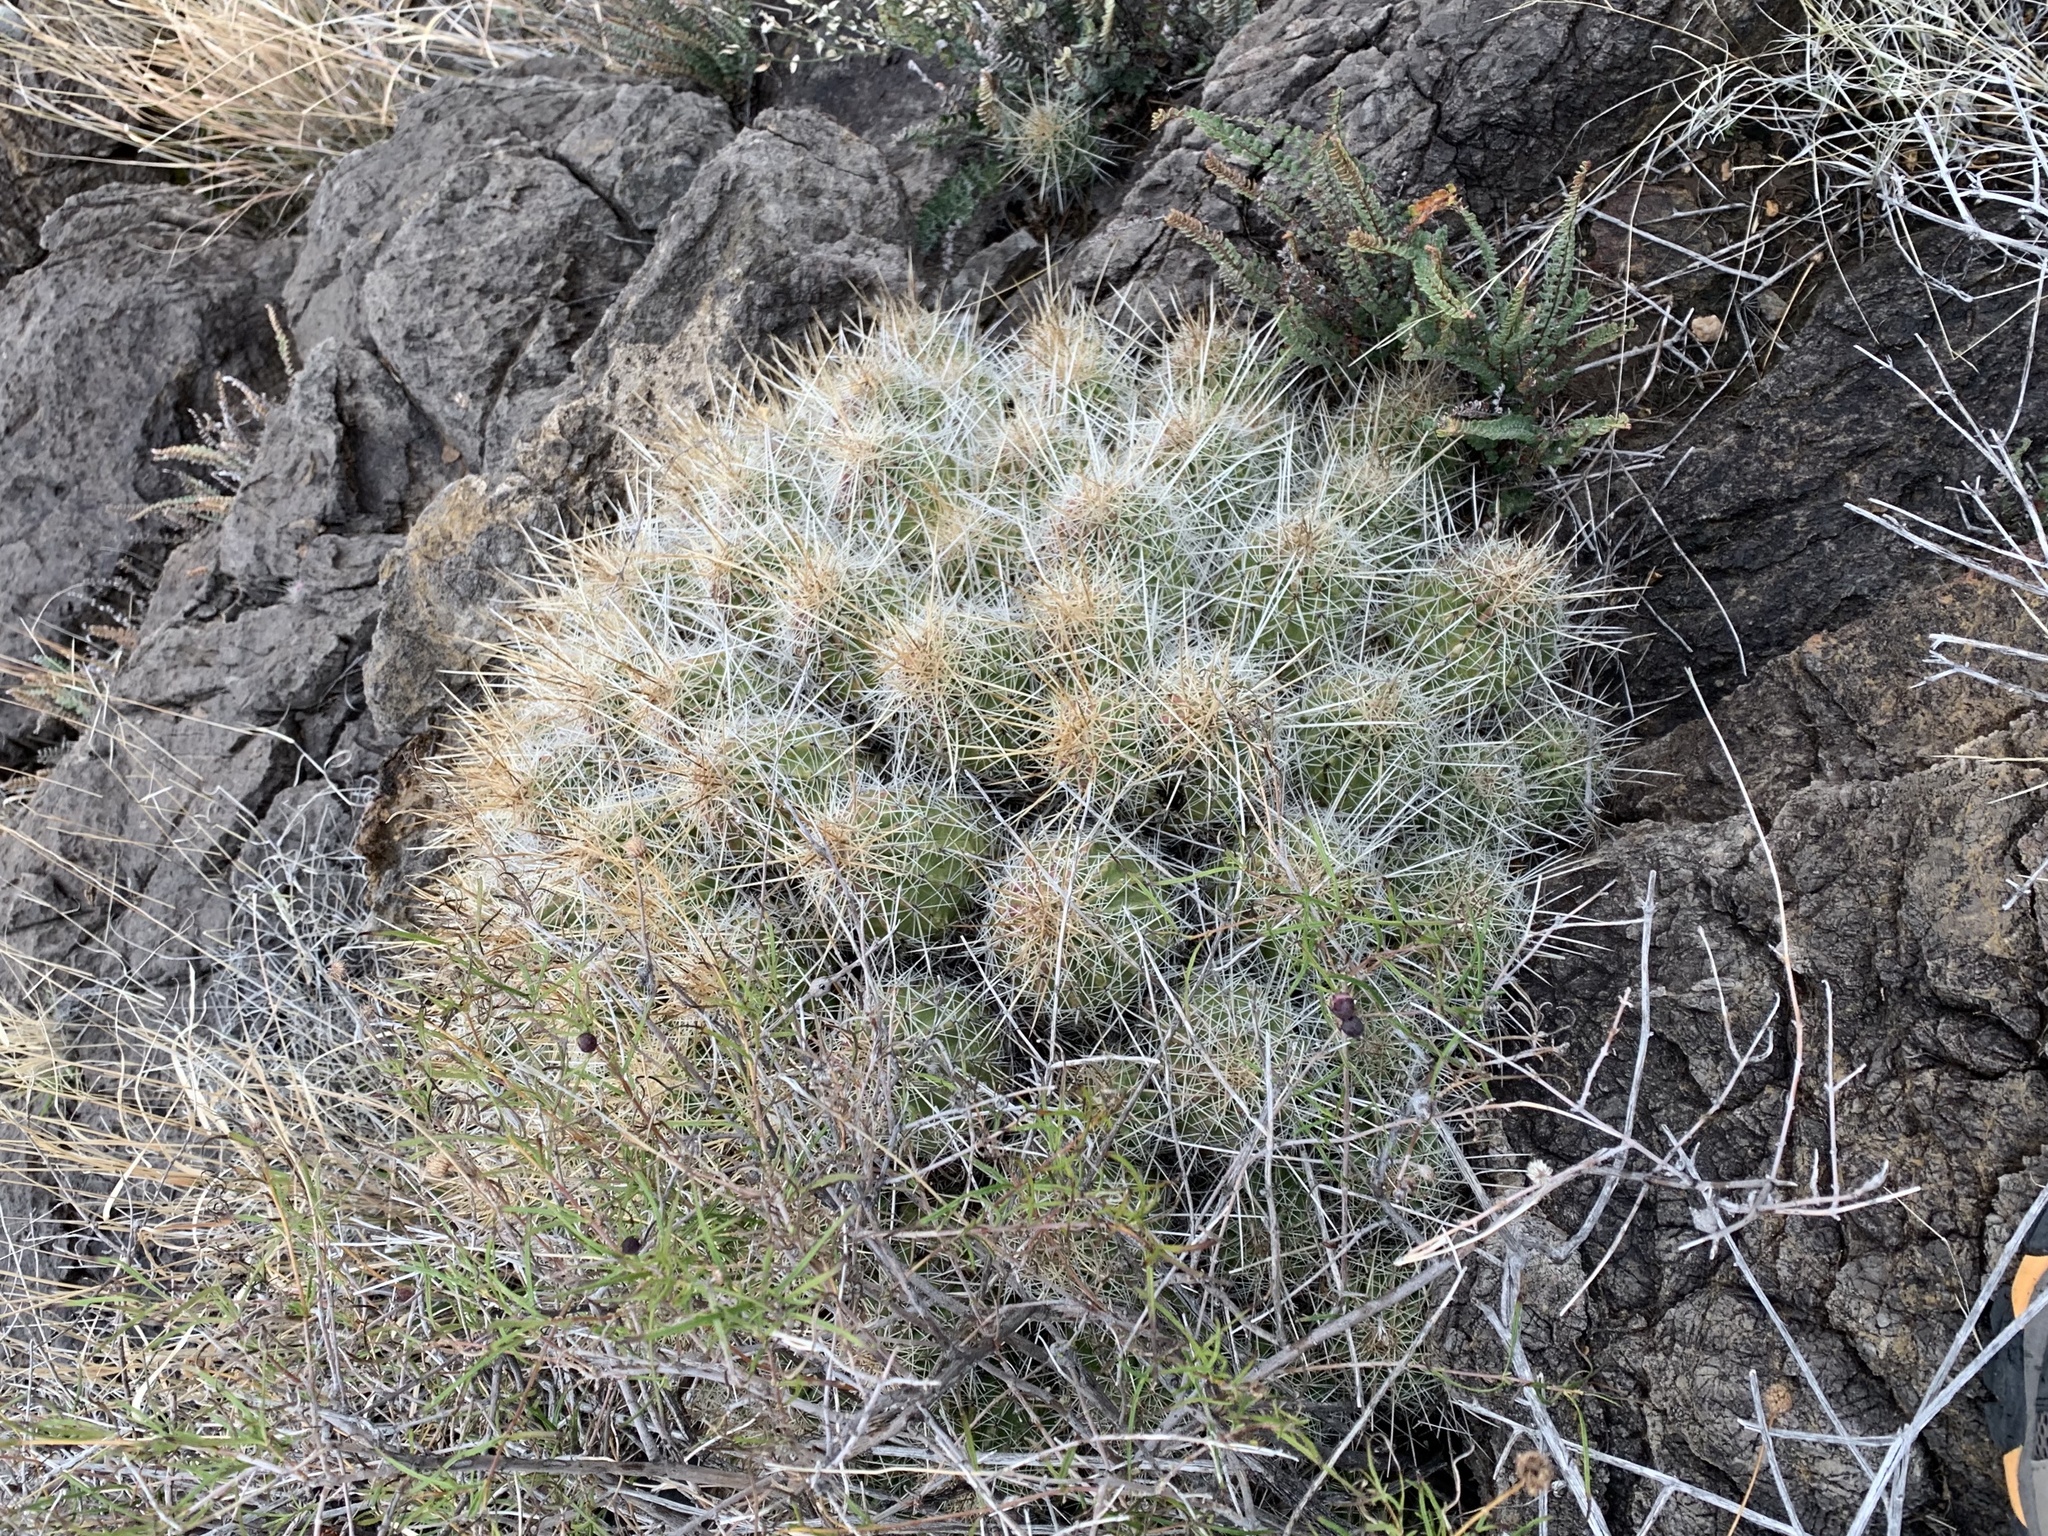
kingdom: Plantae
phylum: Tracheophyta
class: Magnoliopsida
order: Caryophyllales
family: Cactaceae
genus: Echinocereus
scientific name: Echinocereus stramineus
